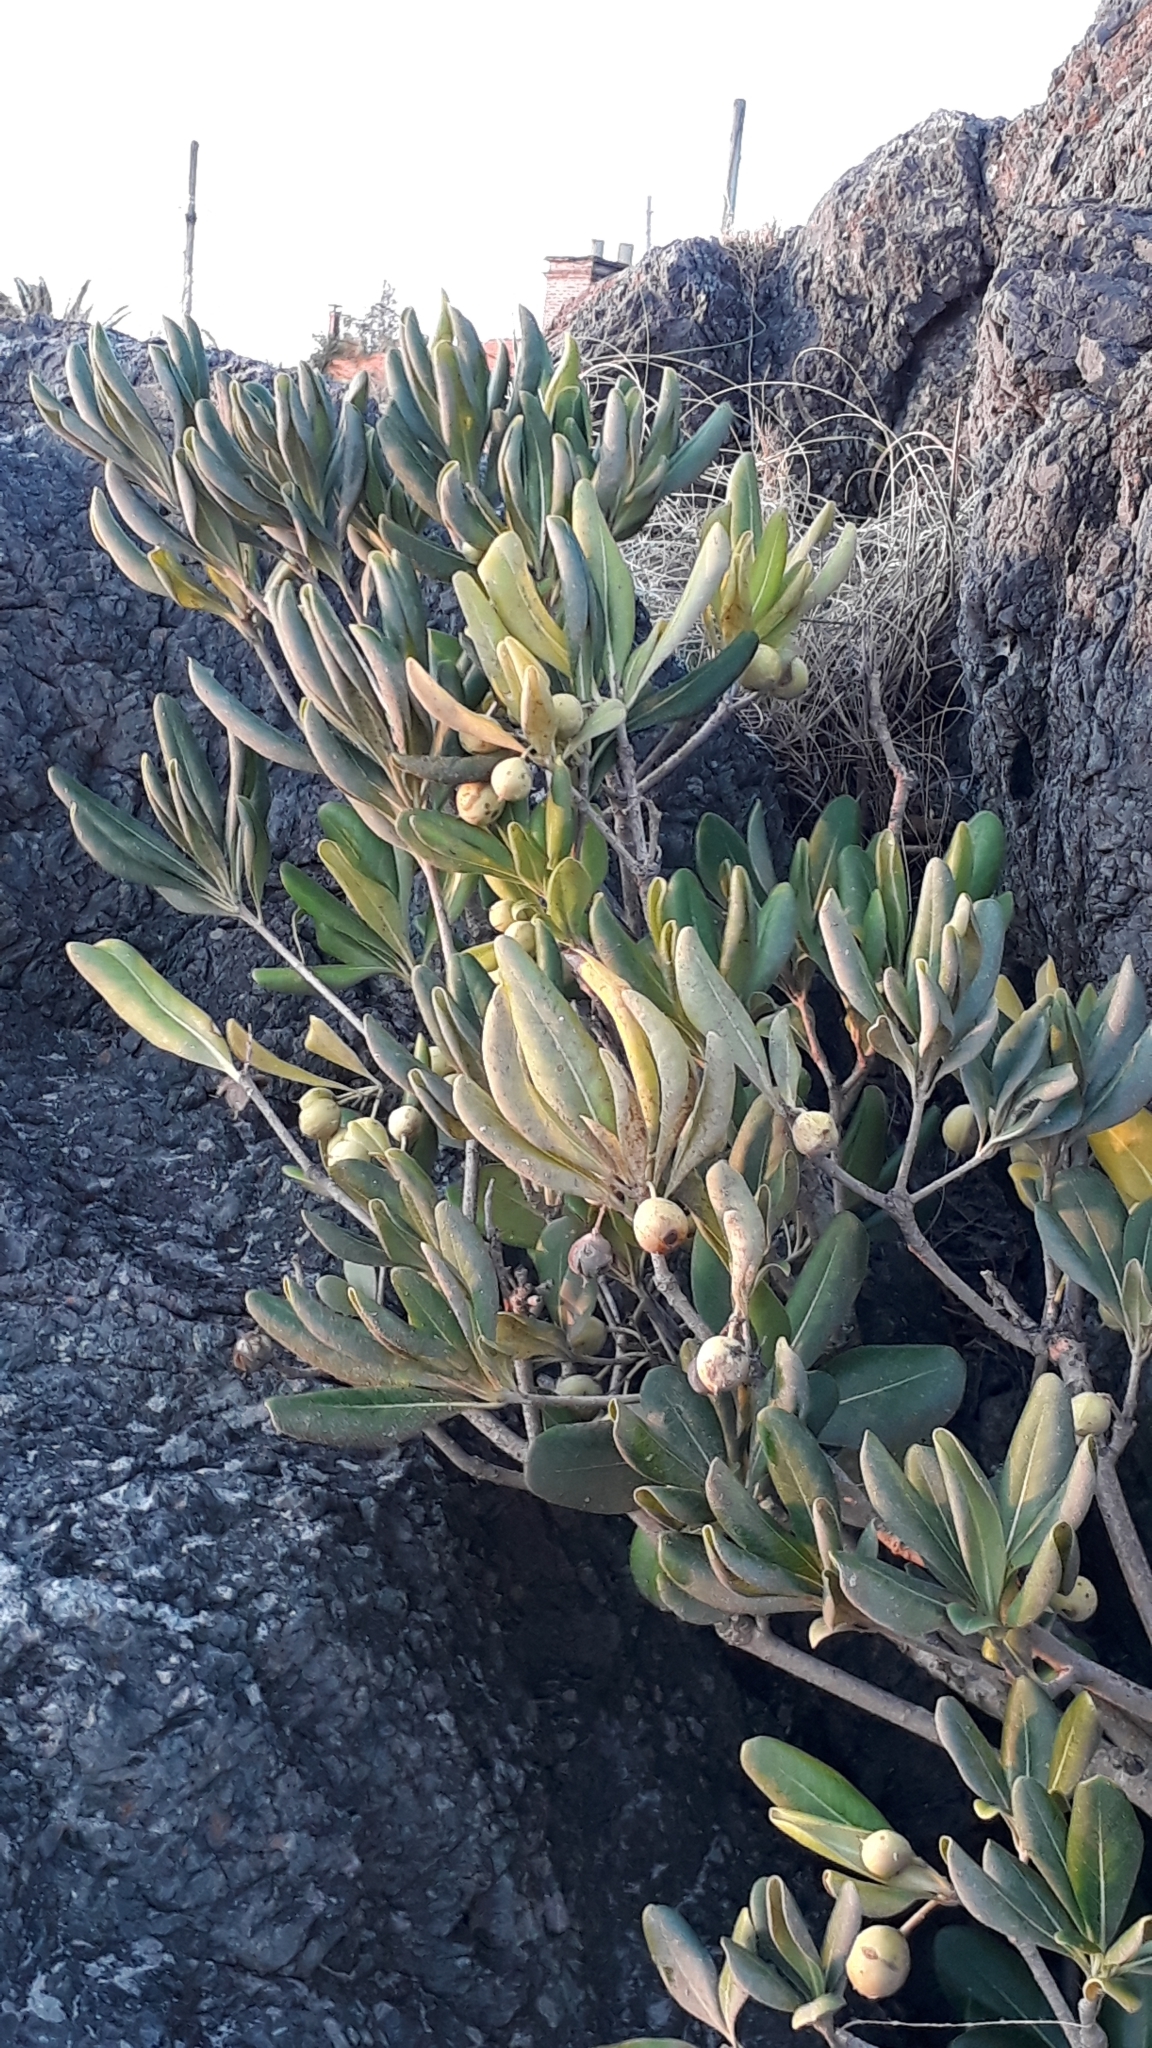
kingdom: Plantae
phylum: Tracheophyta
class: Magnoliopsida
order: Apiales
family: Pittosporaceae
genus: Pittosporum
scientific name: Pittosporum tobira
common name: Japanese cheesewood
